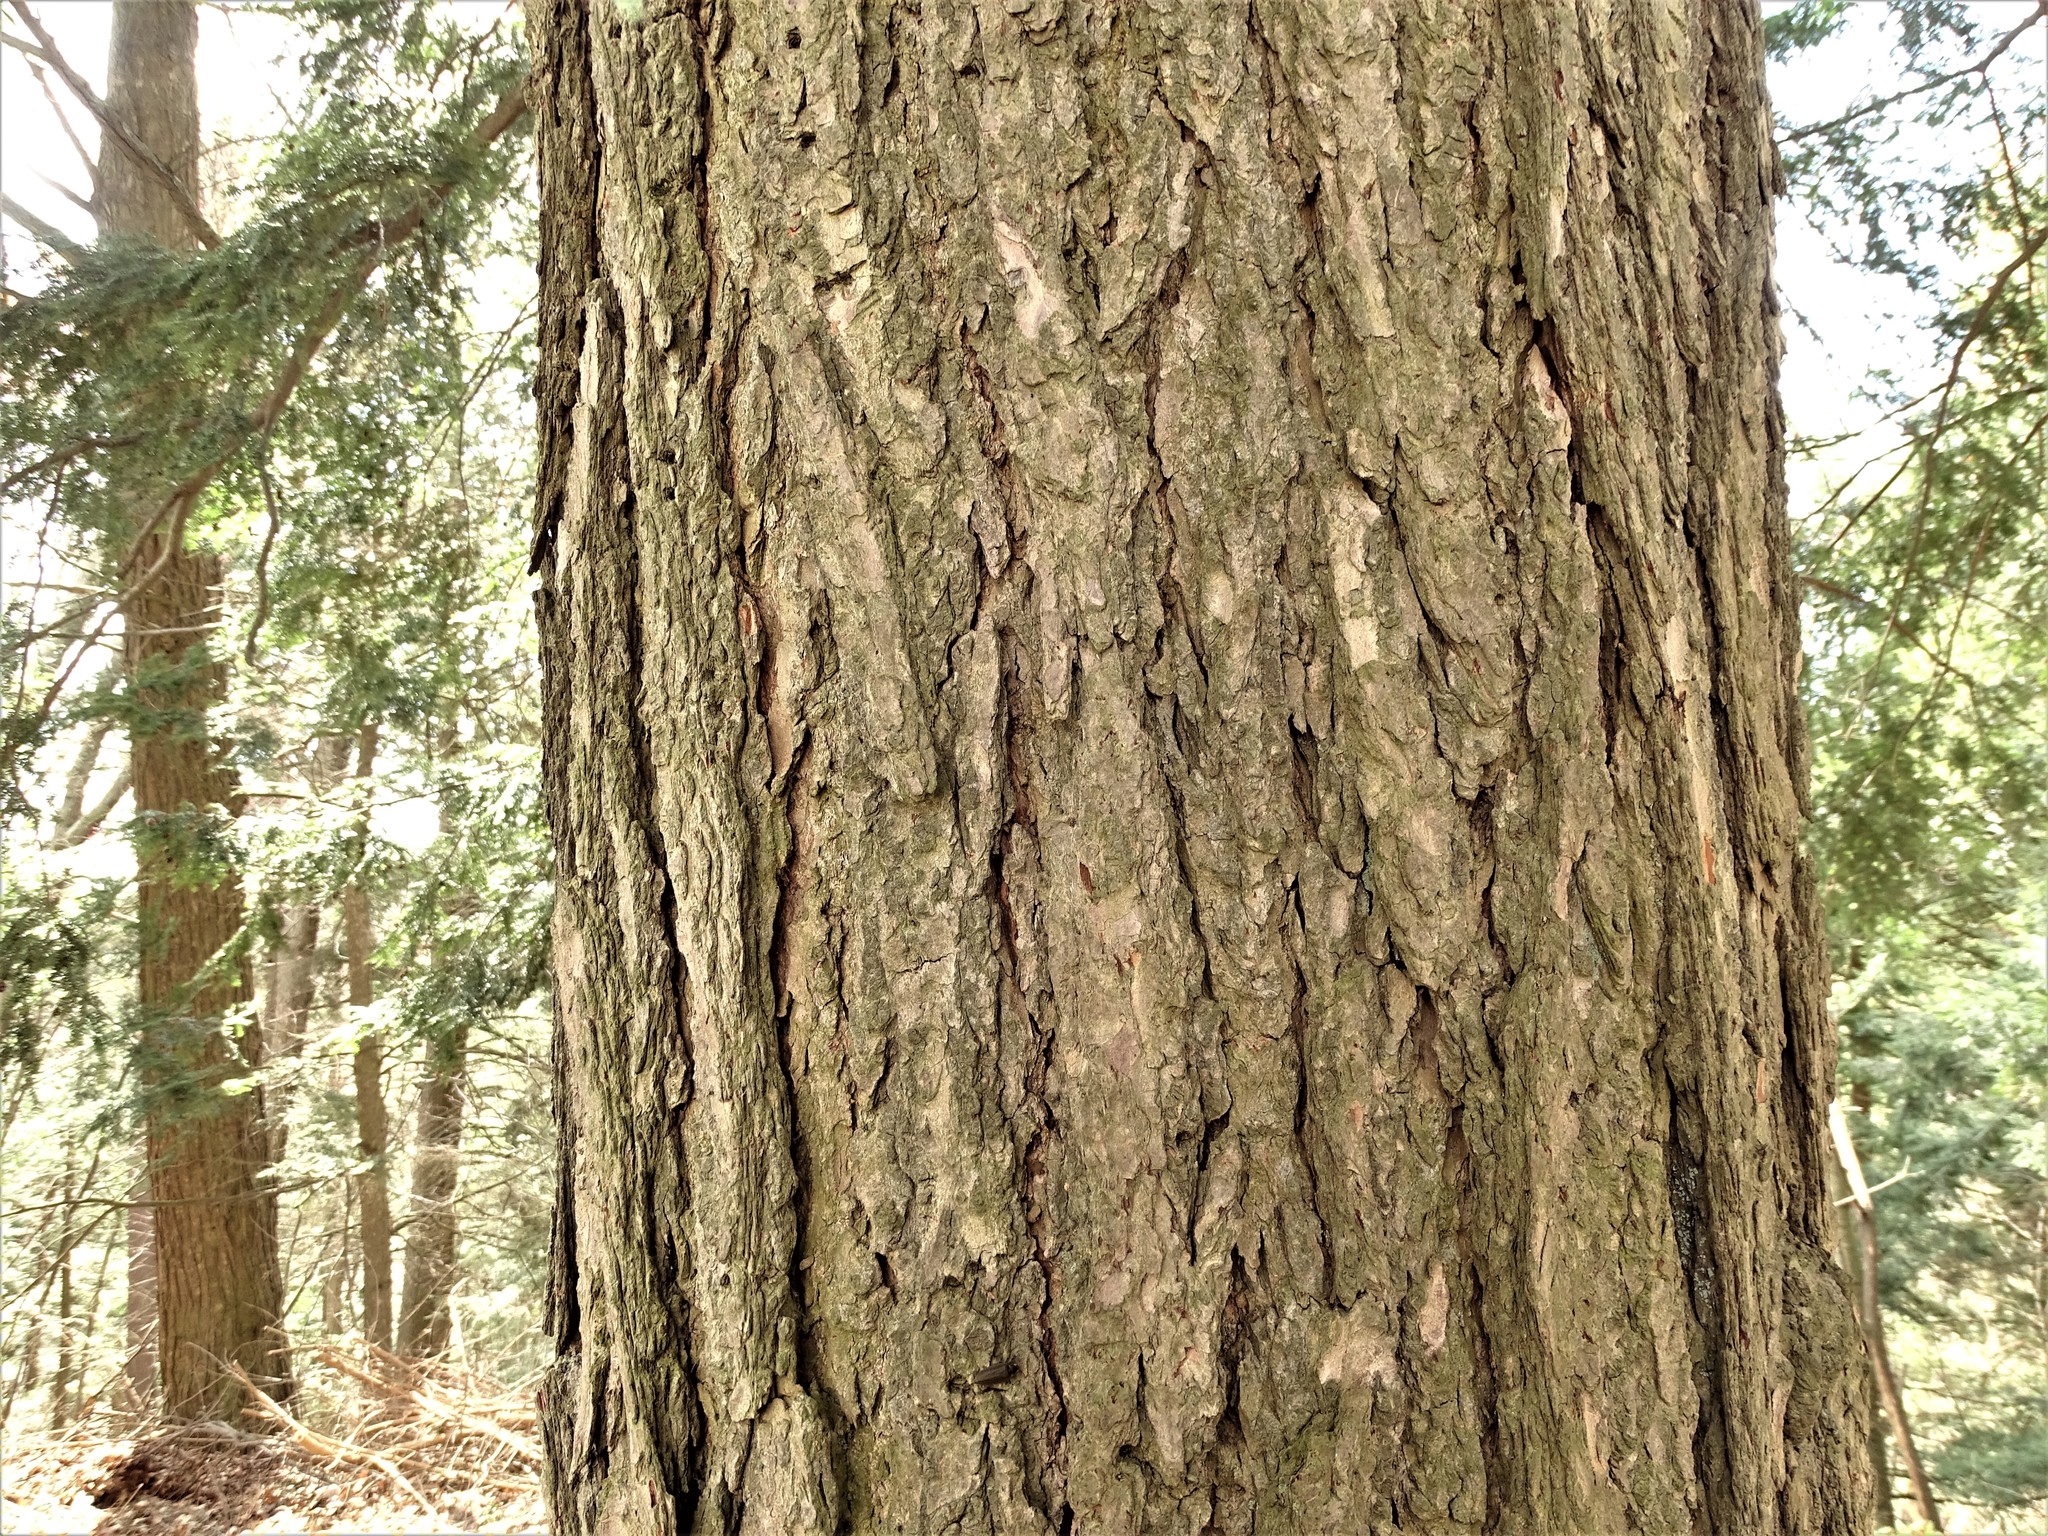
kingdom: Plantae
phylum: Tracheophyta
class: Pinopsida
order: Pinales
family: Pinaceae
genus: Tsuga
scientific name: Tsuga canadensis
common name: Eastern hemlock
